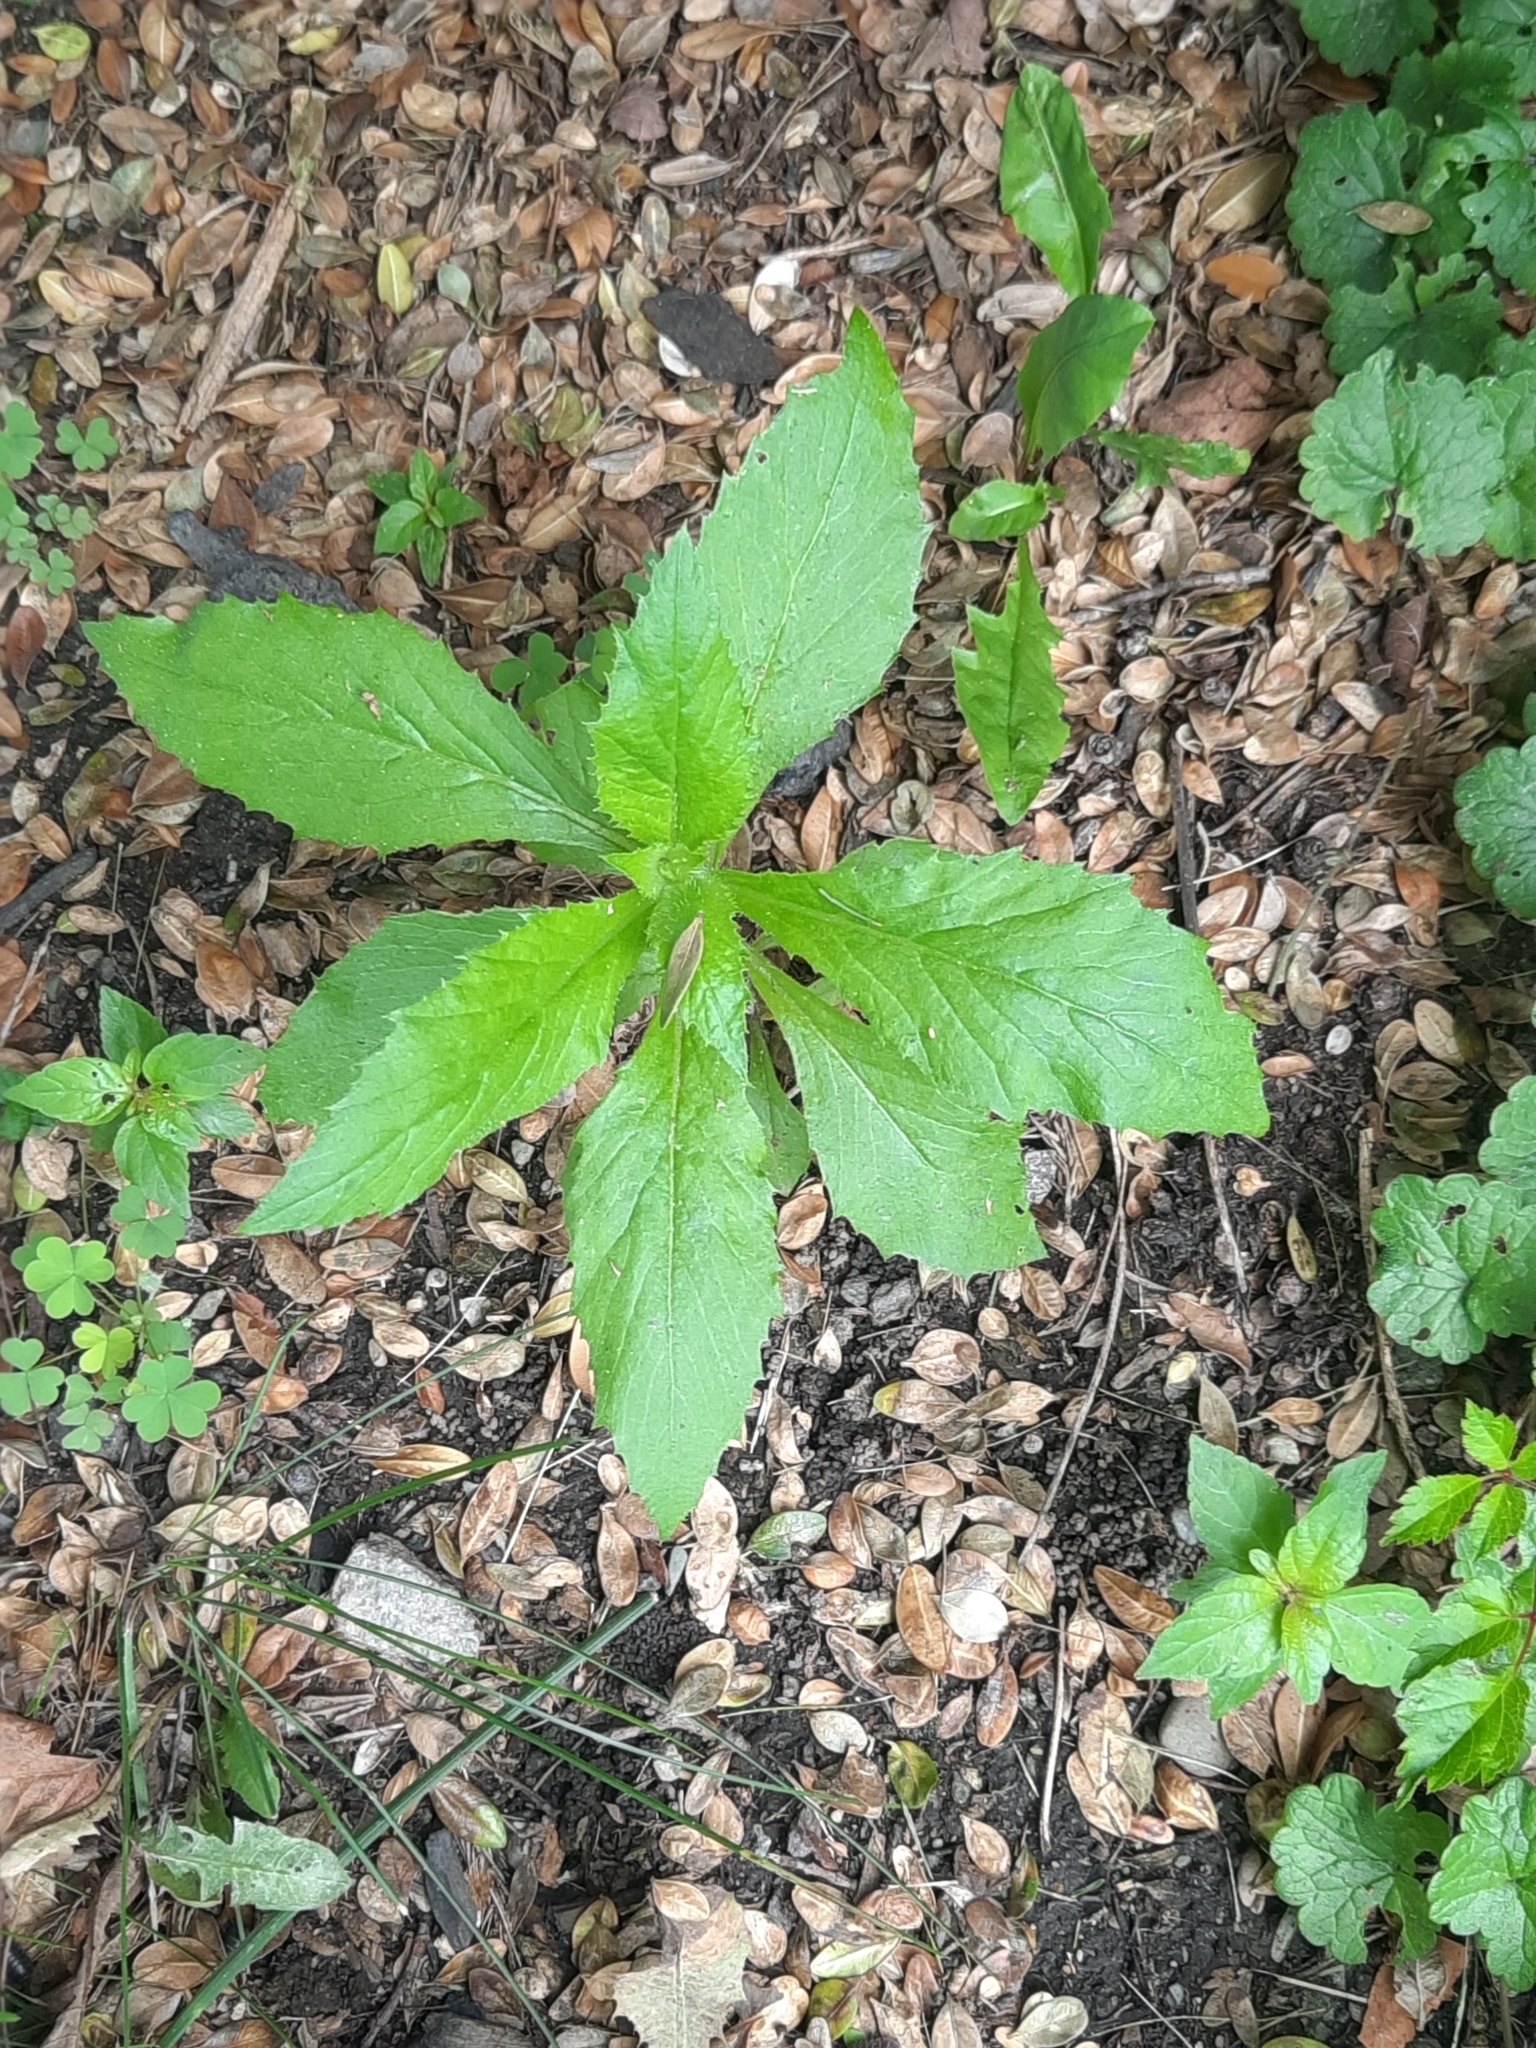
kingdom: Plantae
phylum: Tracheophyta
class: Magnoliopsida
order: Asterales
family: Asteraceae
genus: Erechtites
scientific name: Erechtites hieraciifolius
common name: American burnweed
